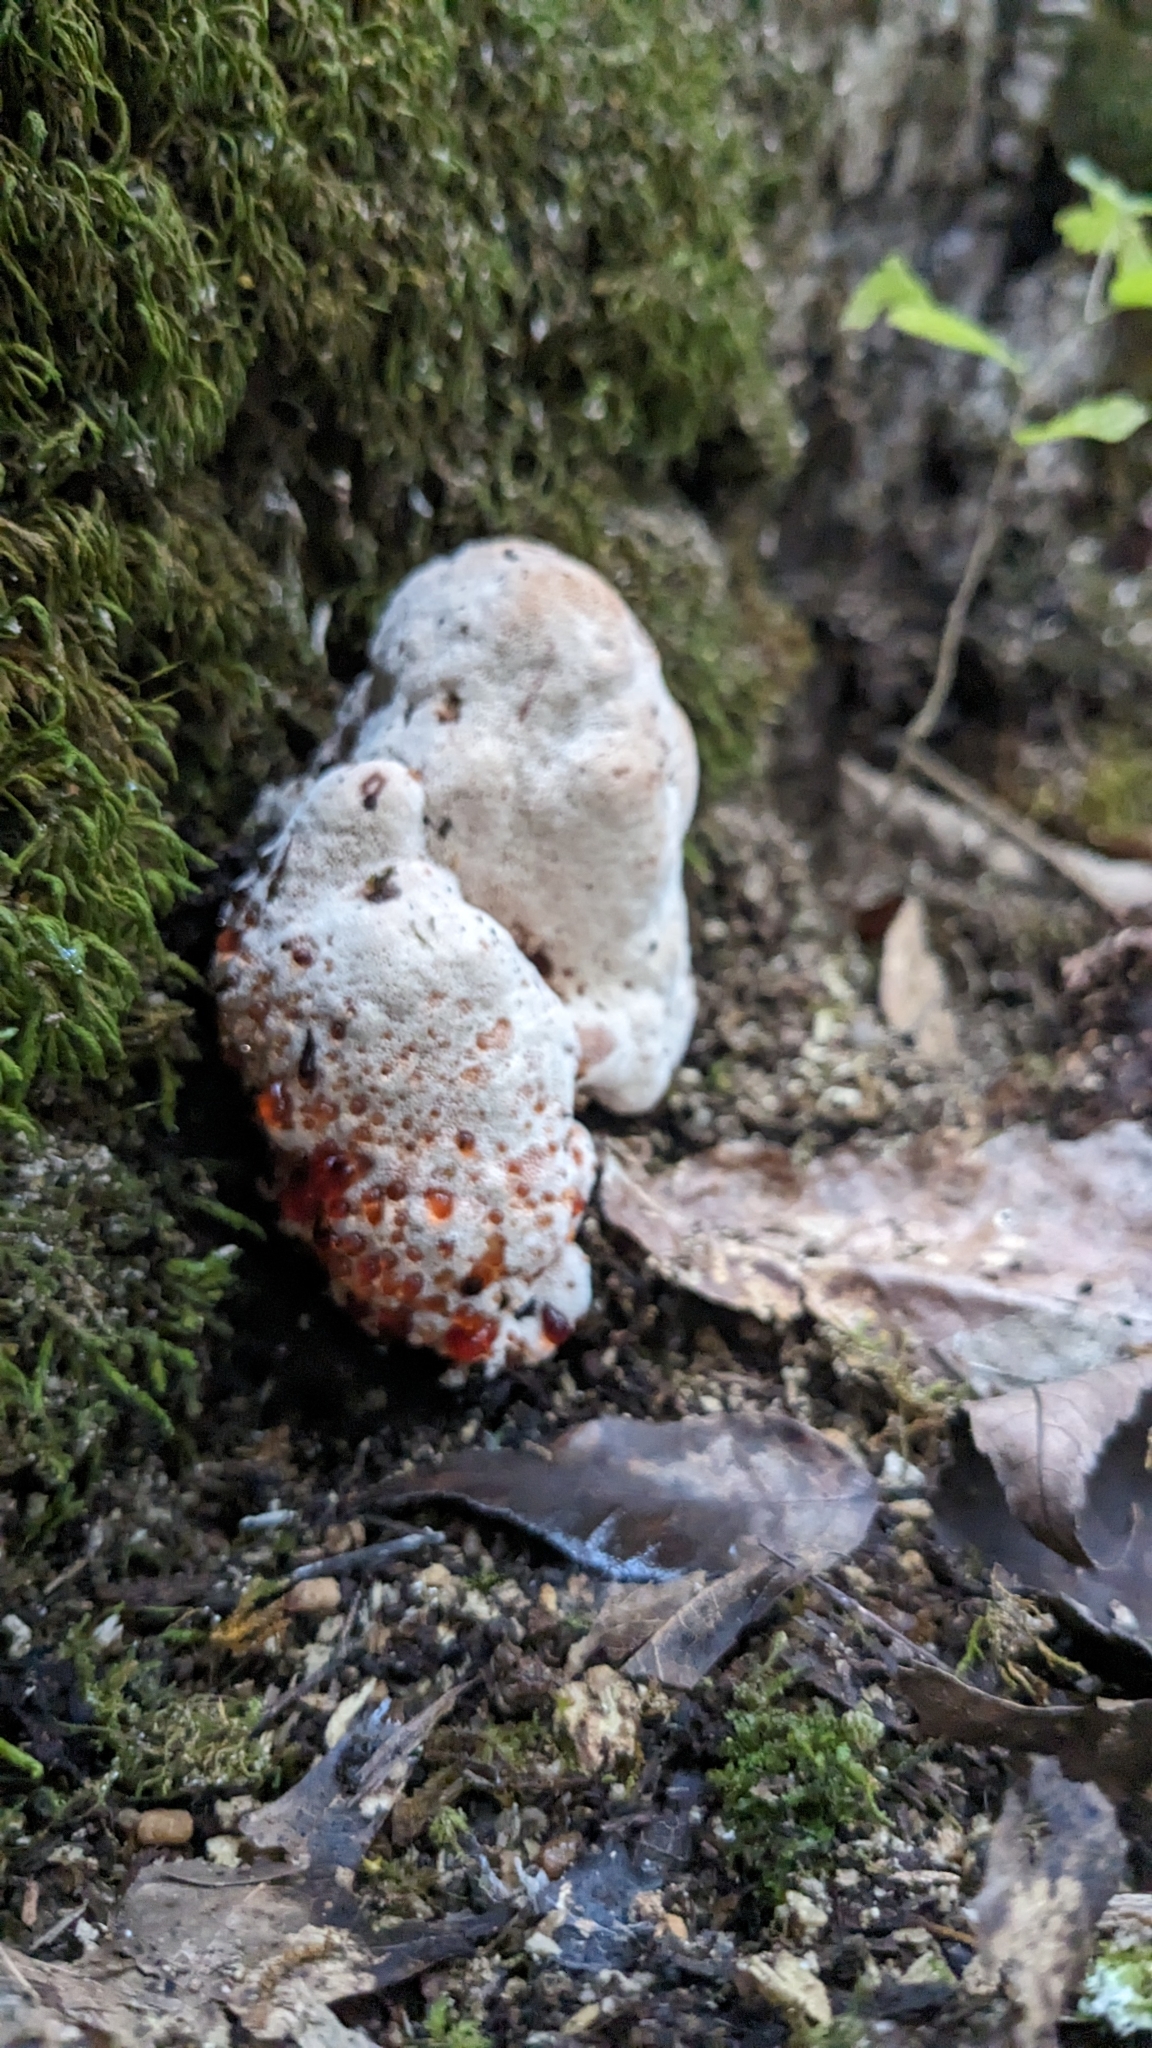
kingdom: Fungi
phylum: Basidiomycota
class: Agaricomycetes
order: Polyporales
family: Podoscyphaceae
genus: Abortiporus
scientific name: Abortiporus biennis
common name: Blushing rosette
